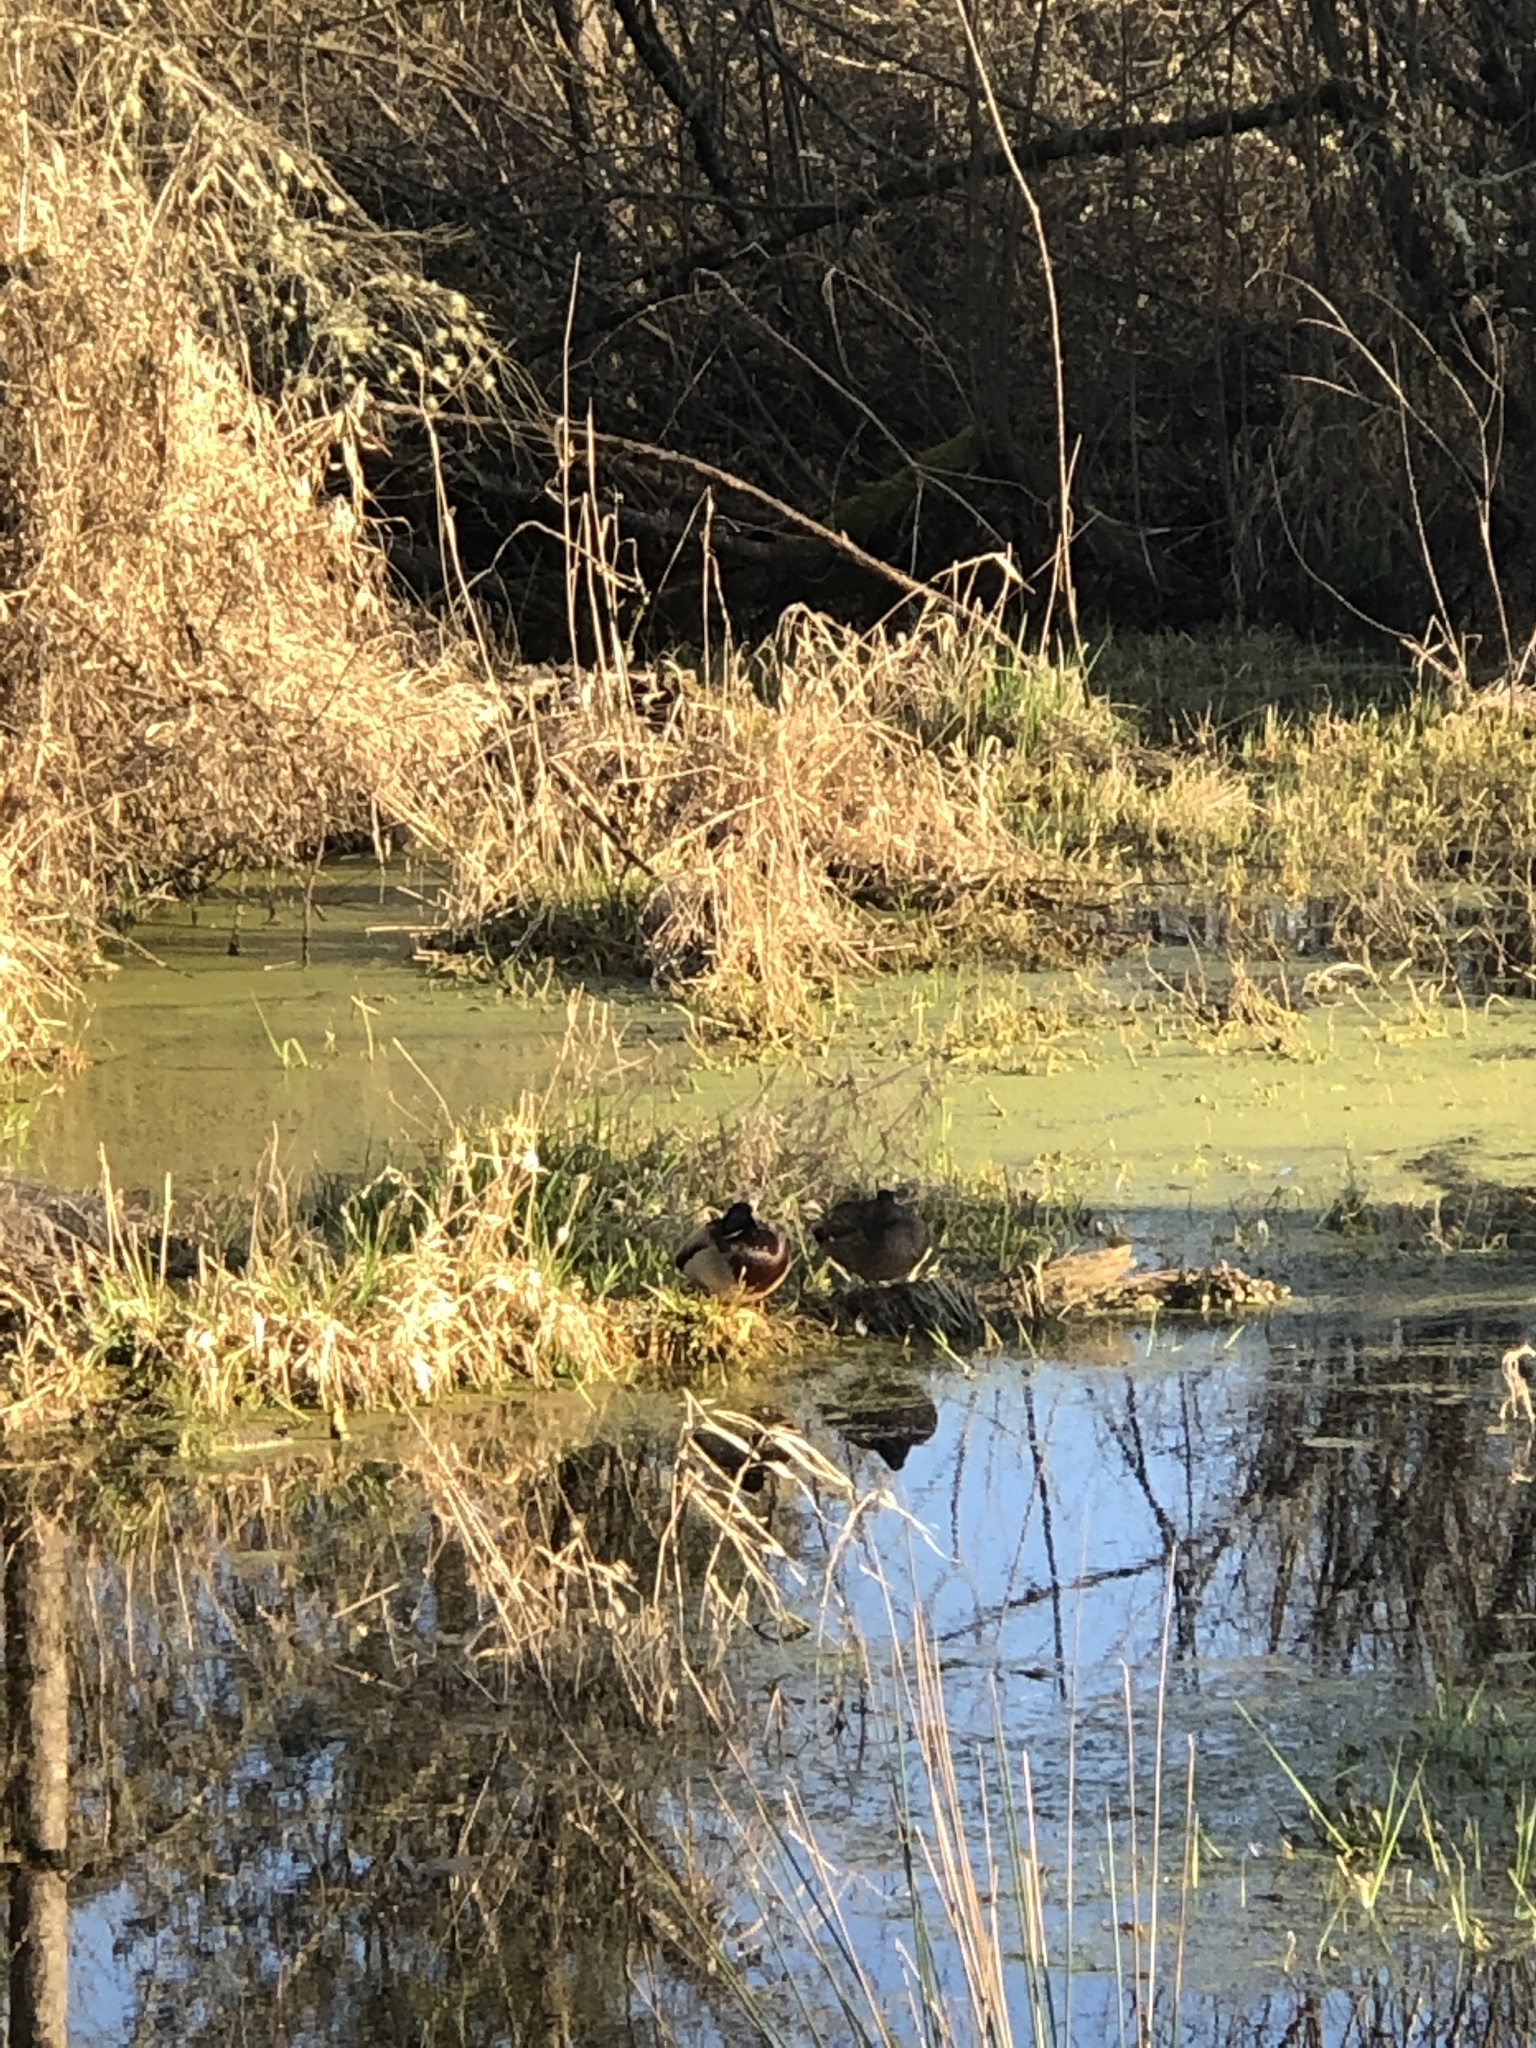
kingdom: Animalia
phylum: Chordata
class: Aves
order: Anseriformes
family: Anatidae
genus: Anas
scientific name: Anas platyrhynchos
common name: Mallard
